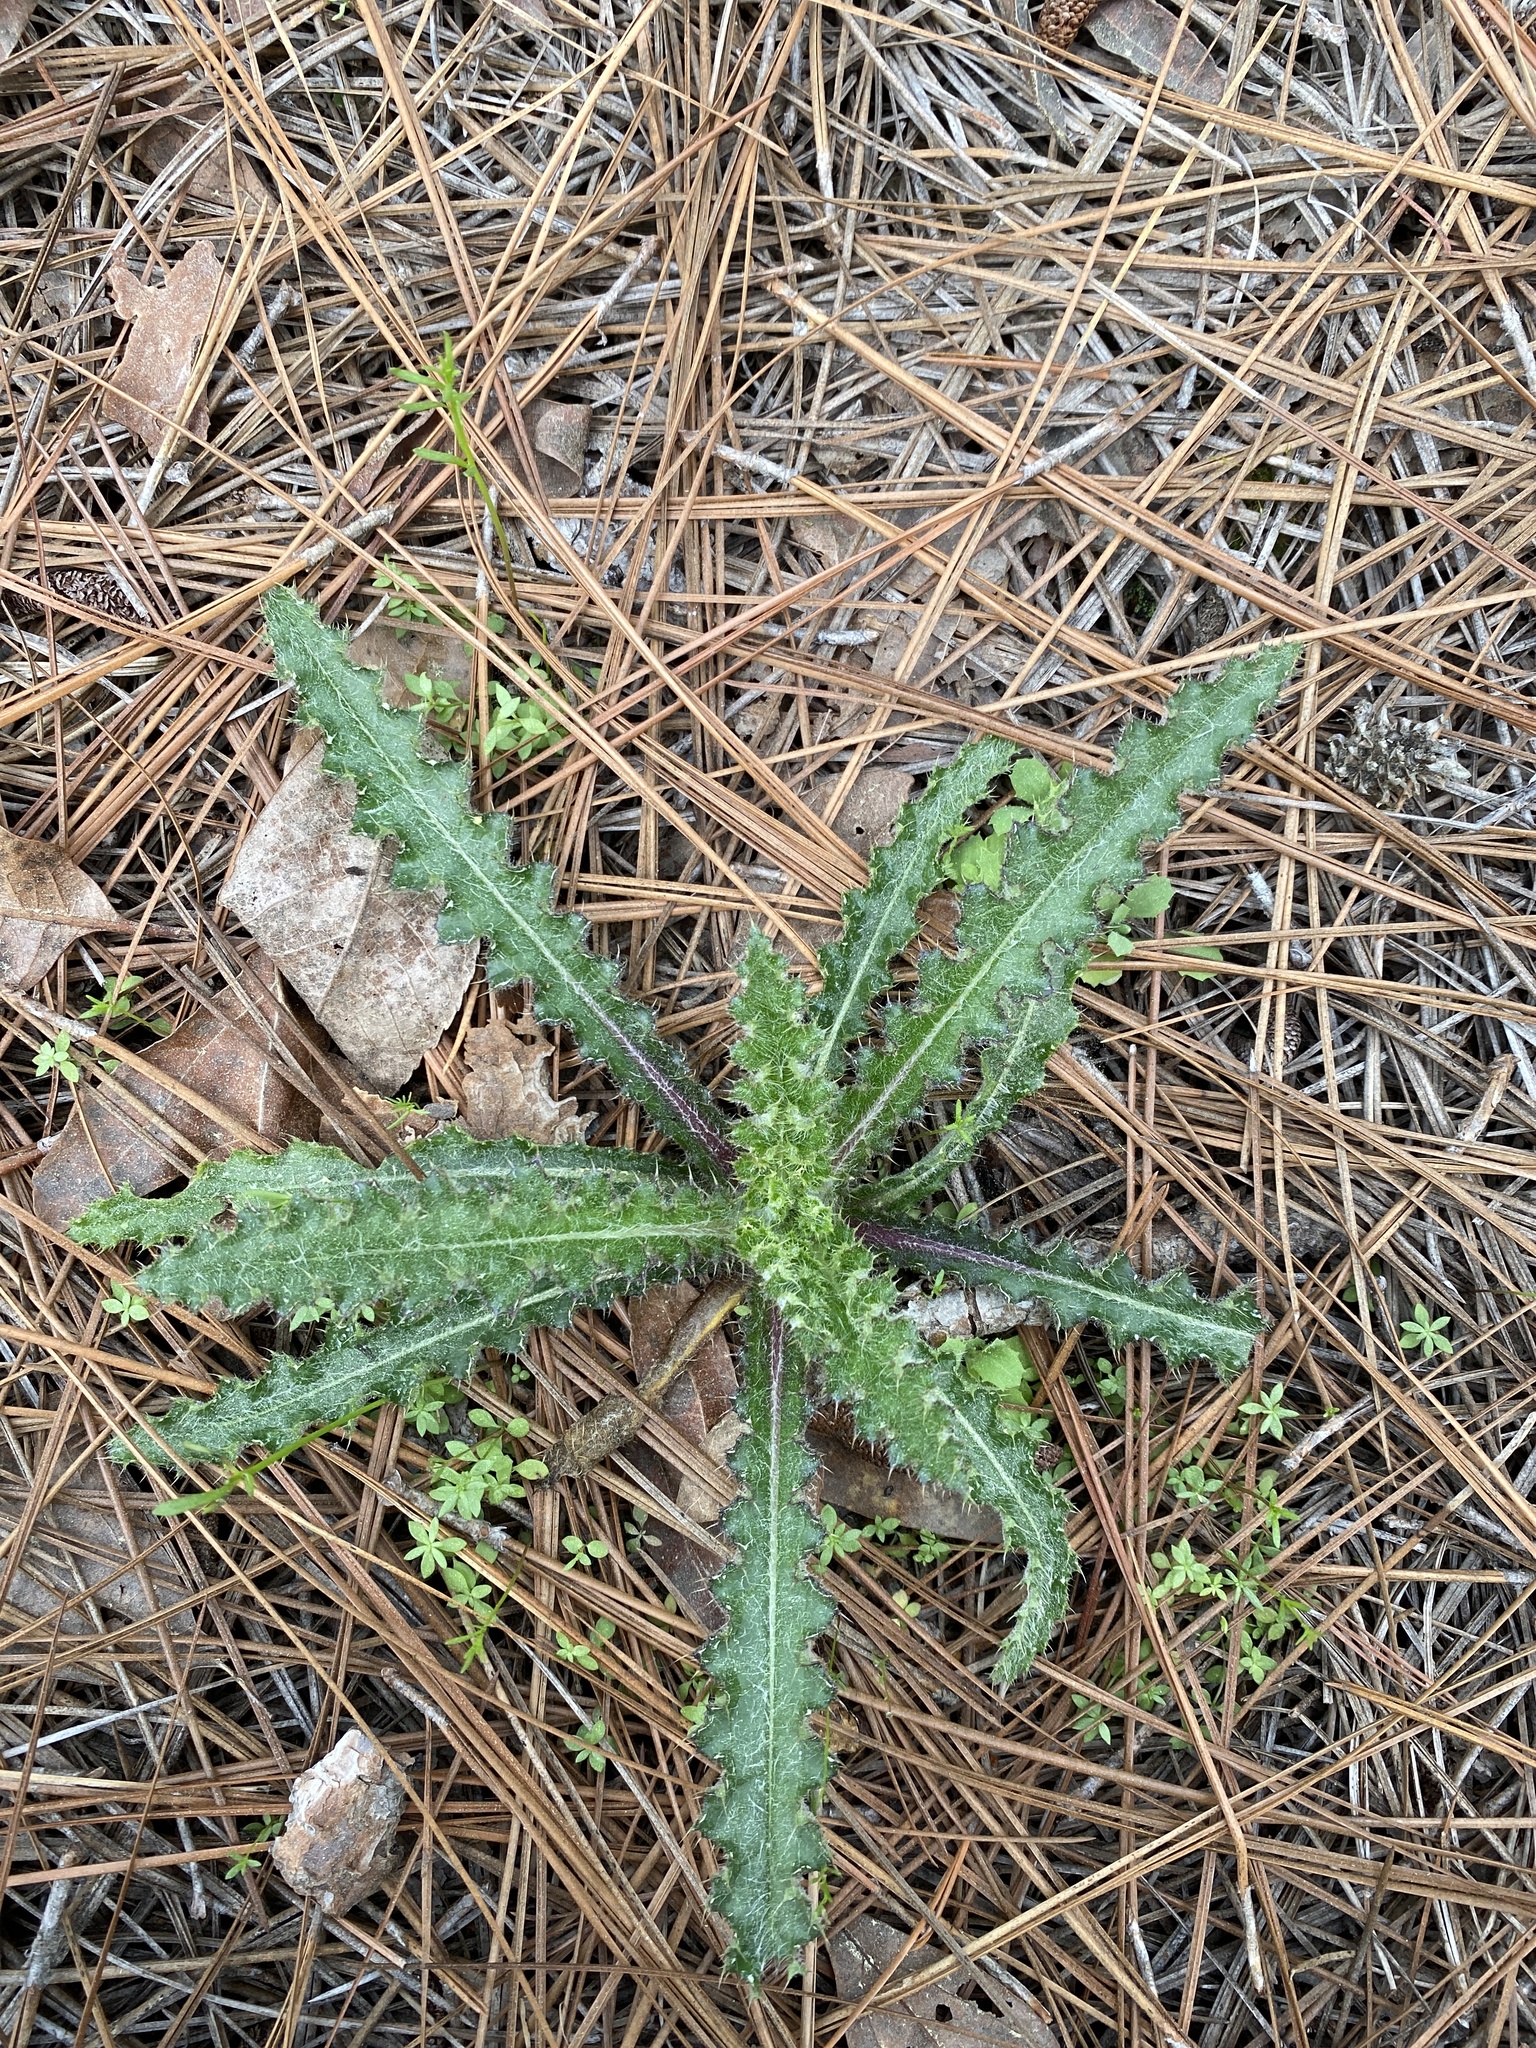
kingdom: Plantae
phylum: Tracheophyta
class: Magnoliopsida
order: Asterales
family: Asteraceae
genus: Cirsium
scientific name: Cirsium repandum
